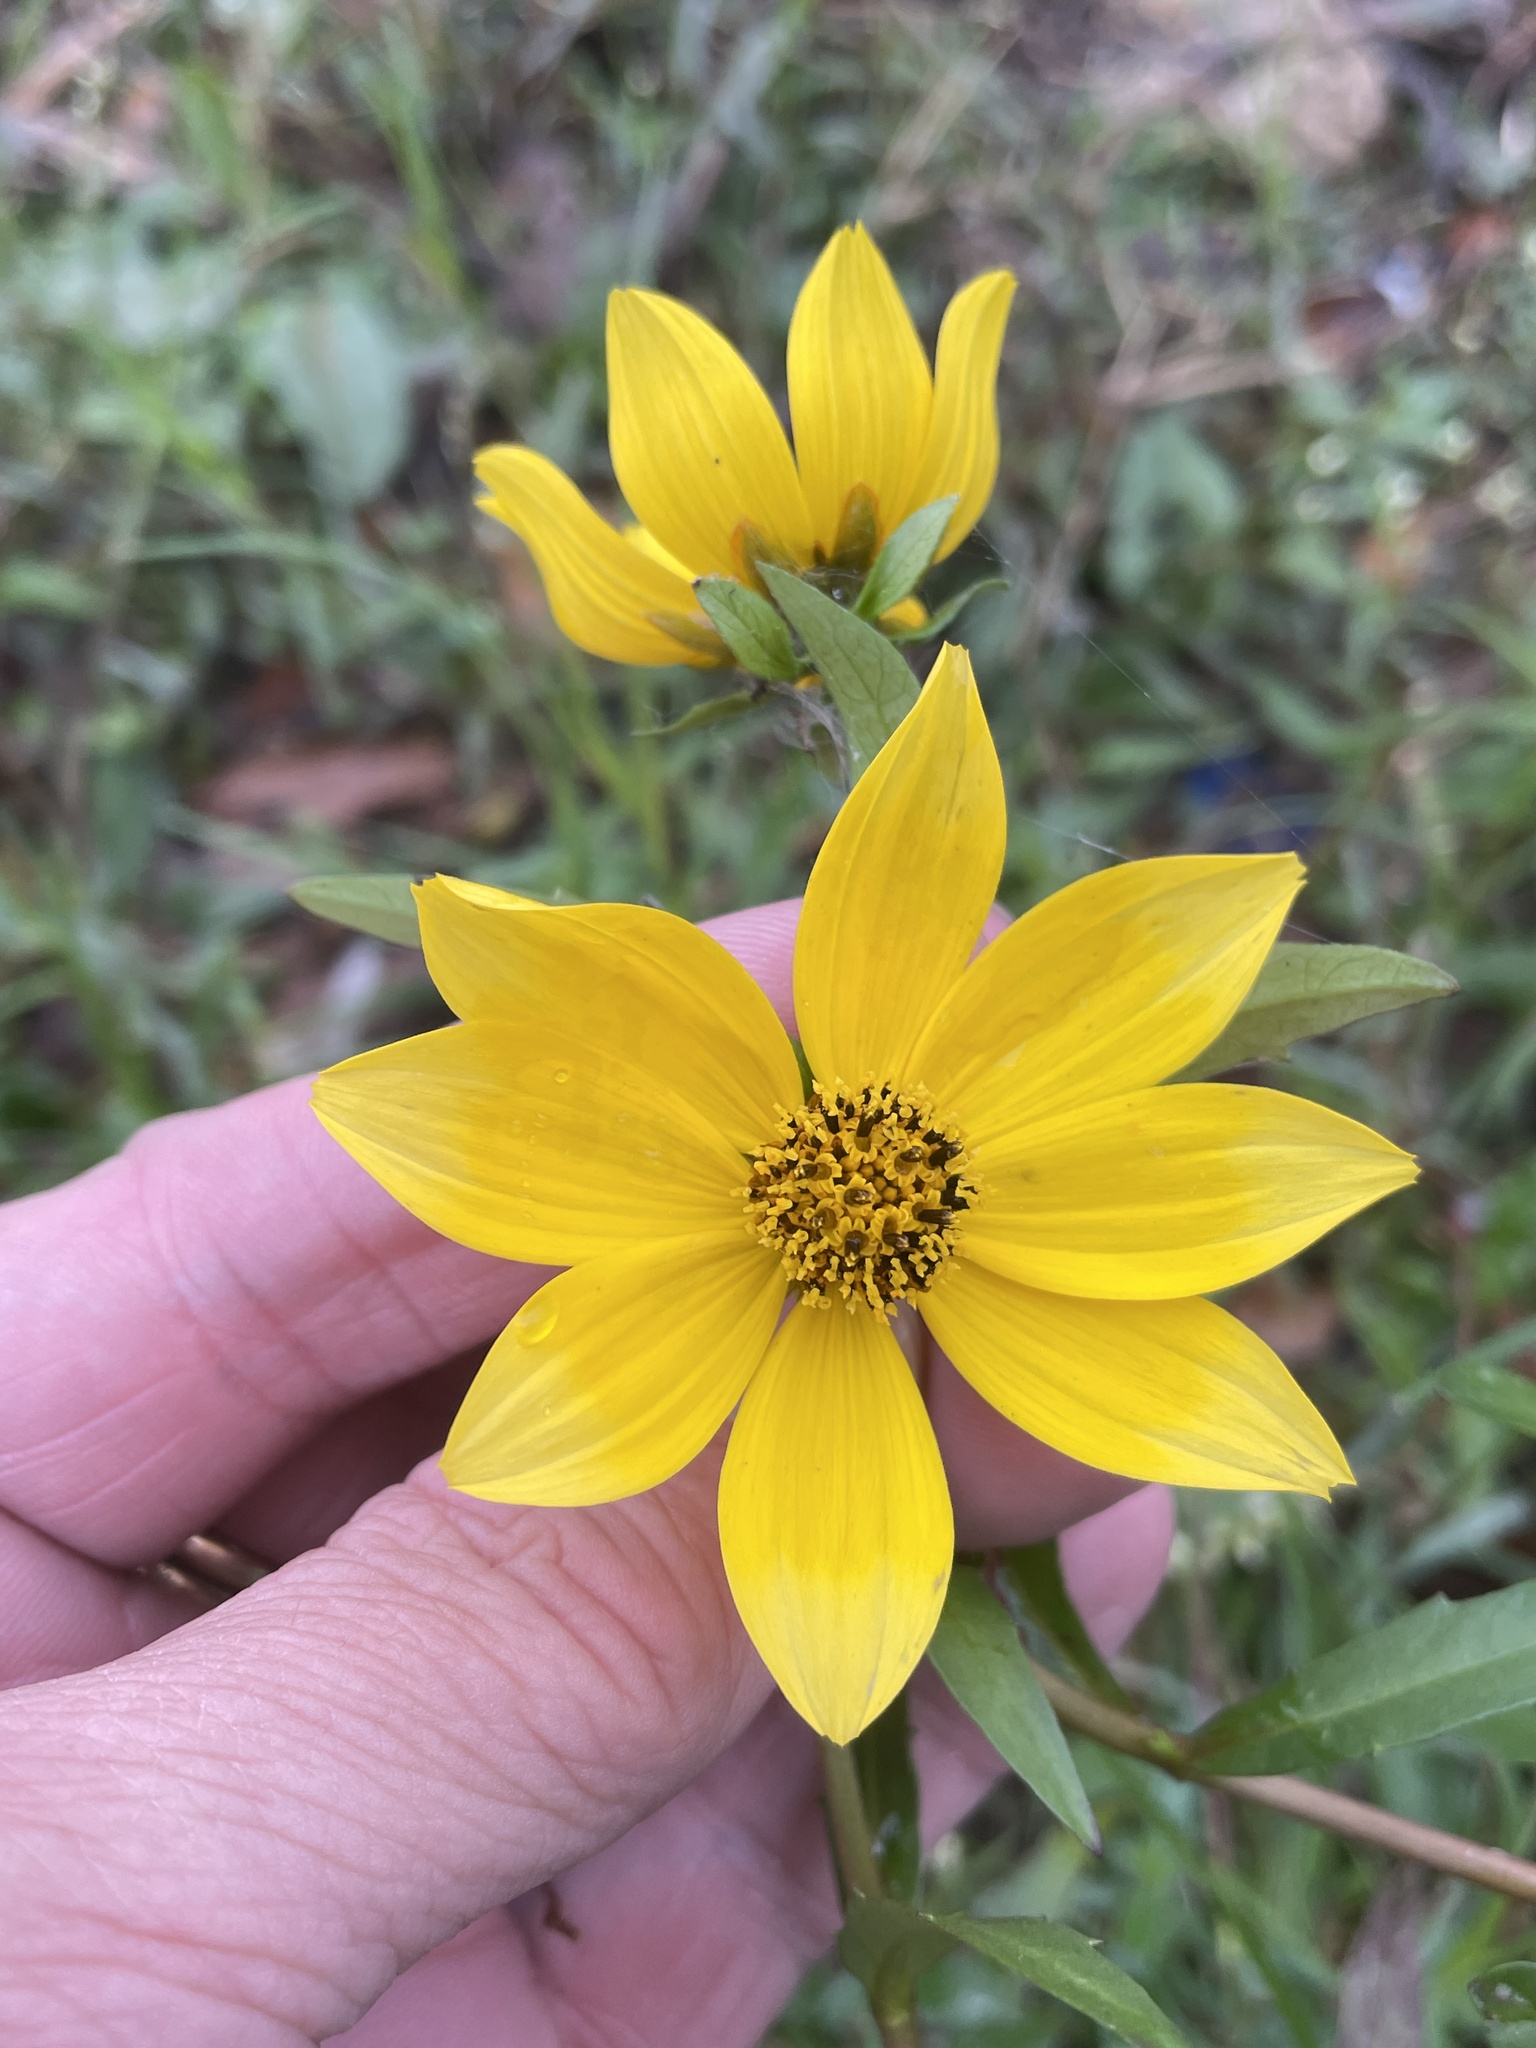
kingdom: Plantae
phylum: Tracheophyta
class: Magnoliopsida
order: Asterales
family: Asteraceae
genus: Bidens
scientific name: Bidens laevis
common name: Larger bur-marigold
